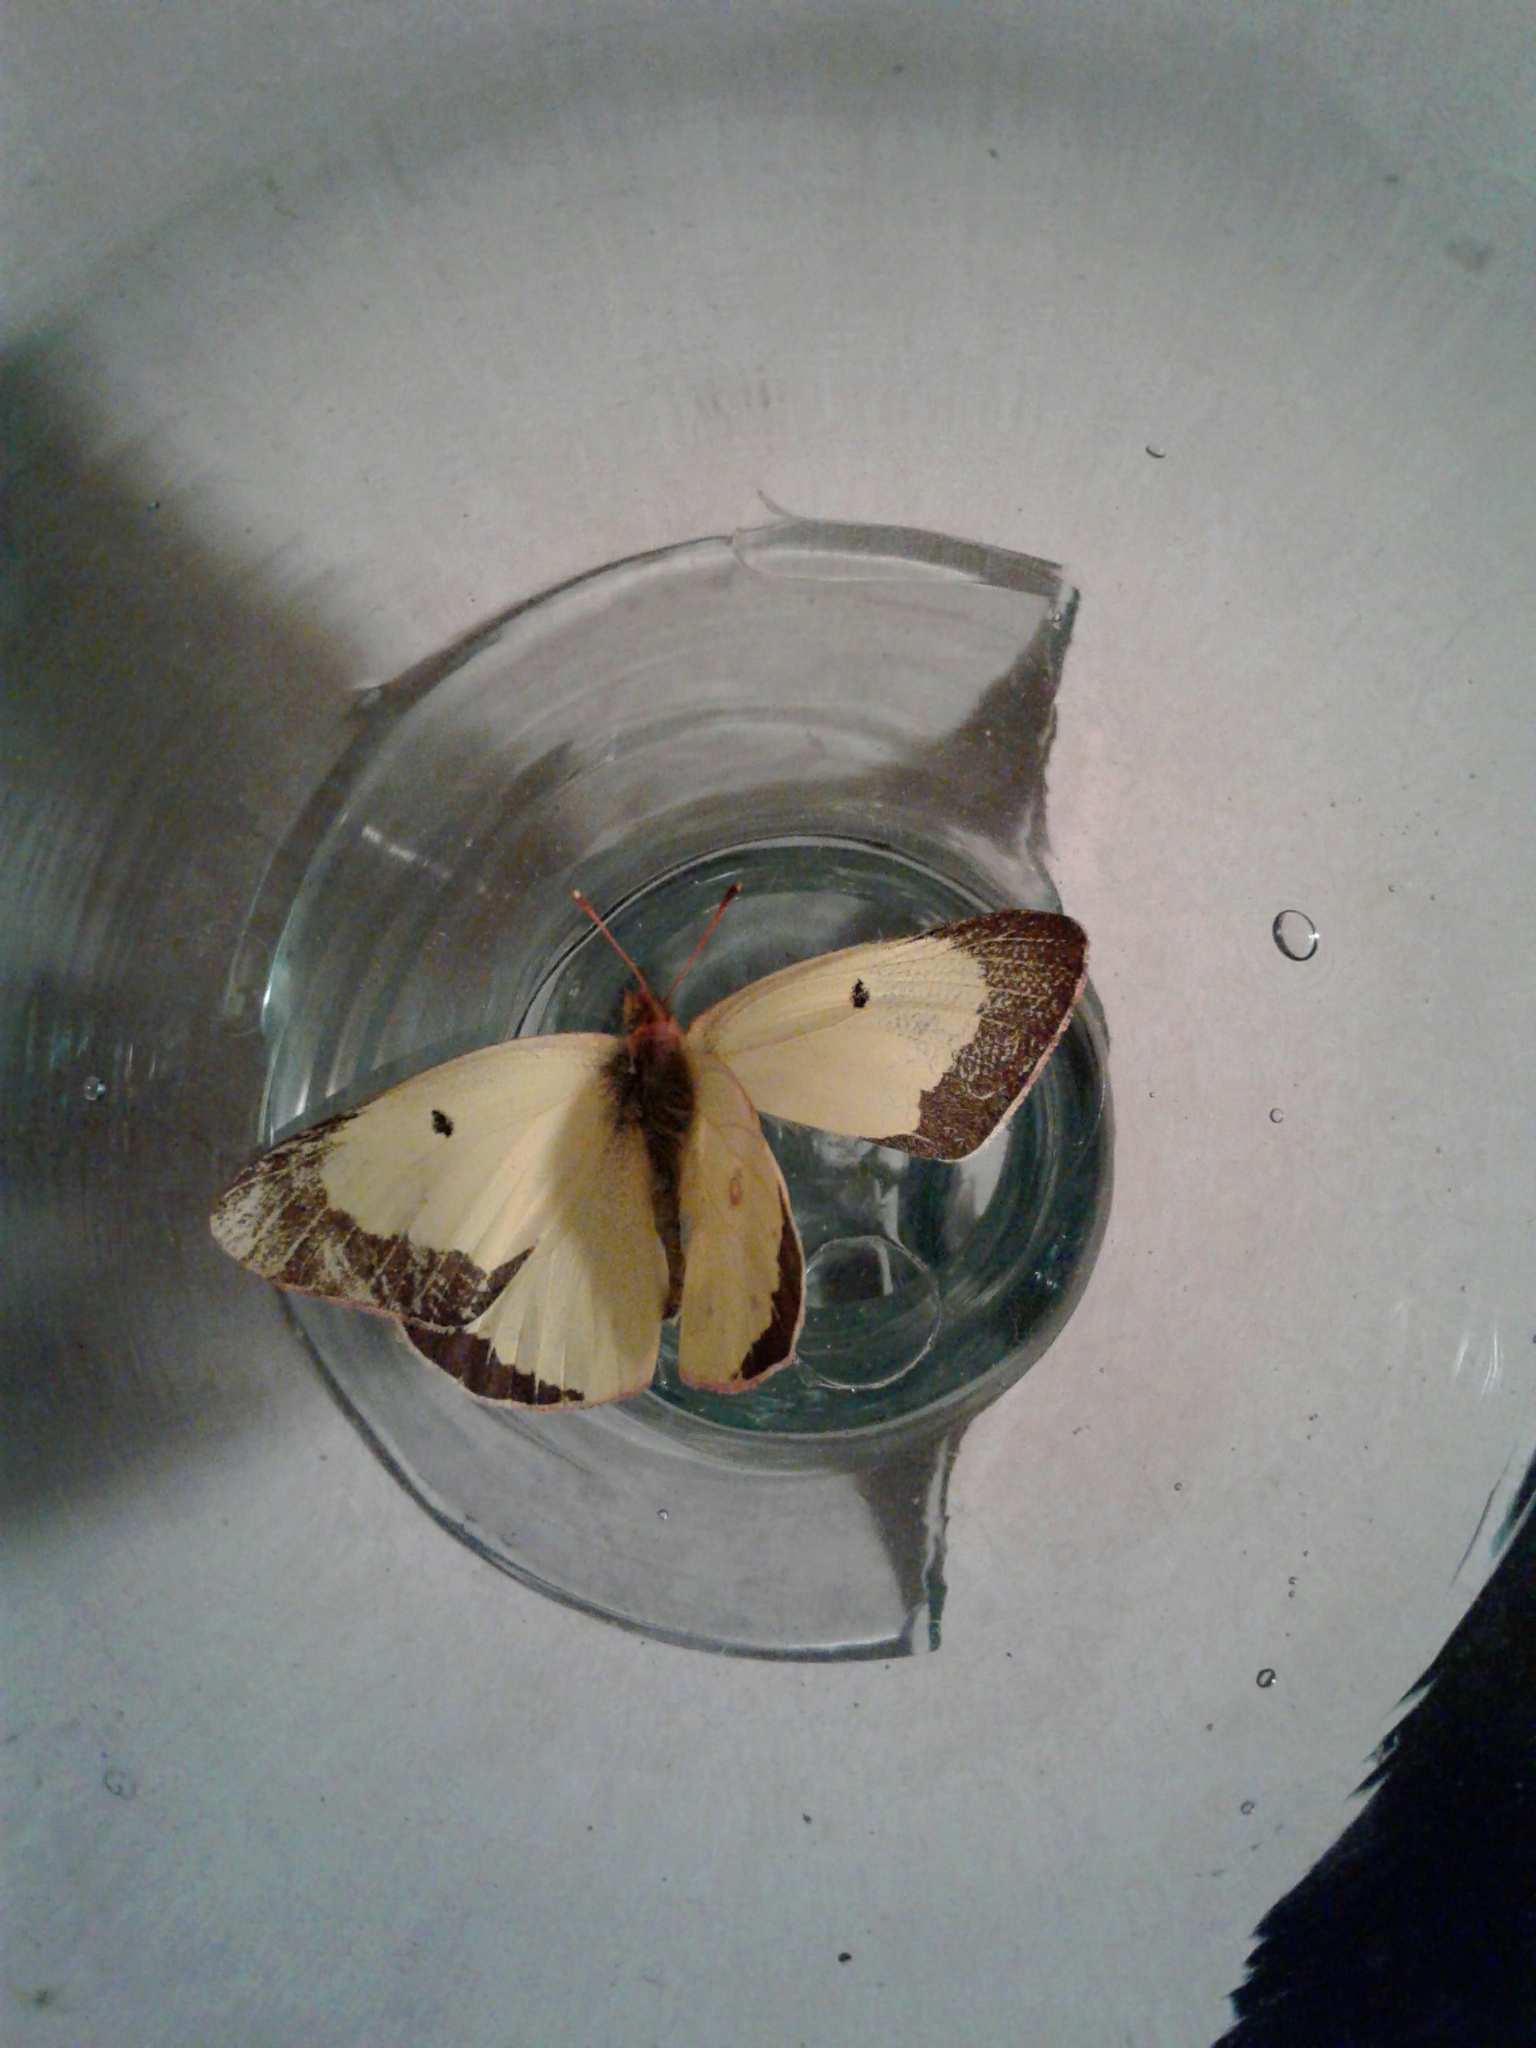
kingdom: Animalia
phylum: Arthropoda
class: Insecta
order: Lepidoptera
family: Pieridae
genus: Colias
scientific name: Colias philodice
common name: Clouded sulphur
